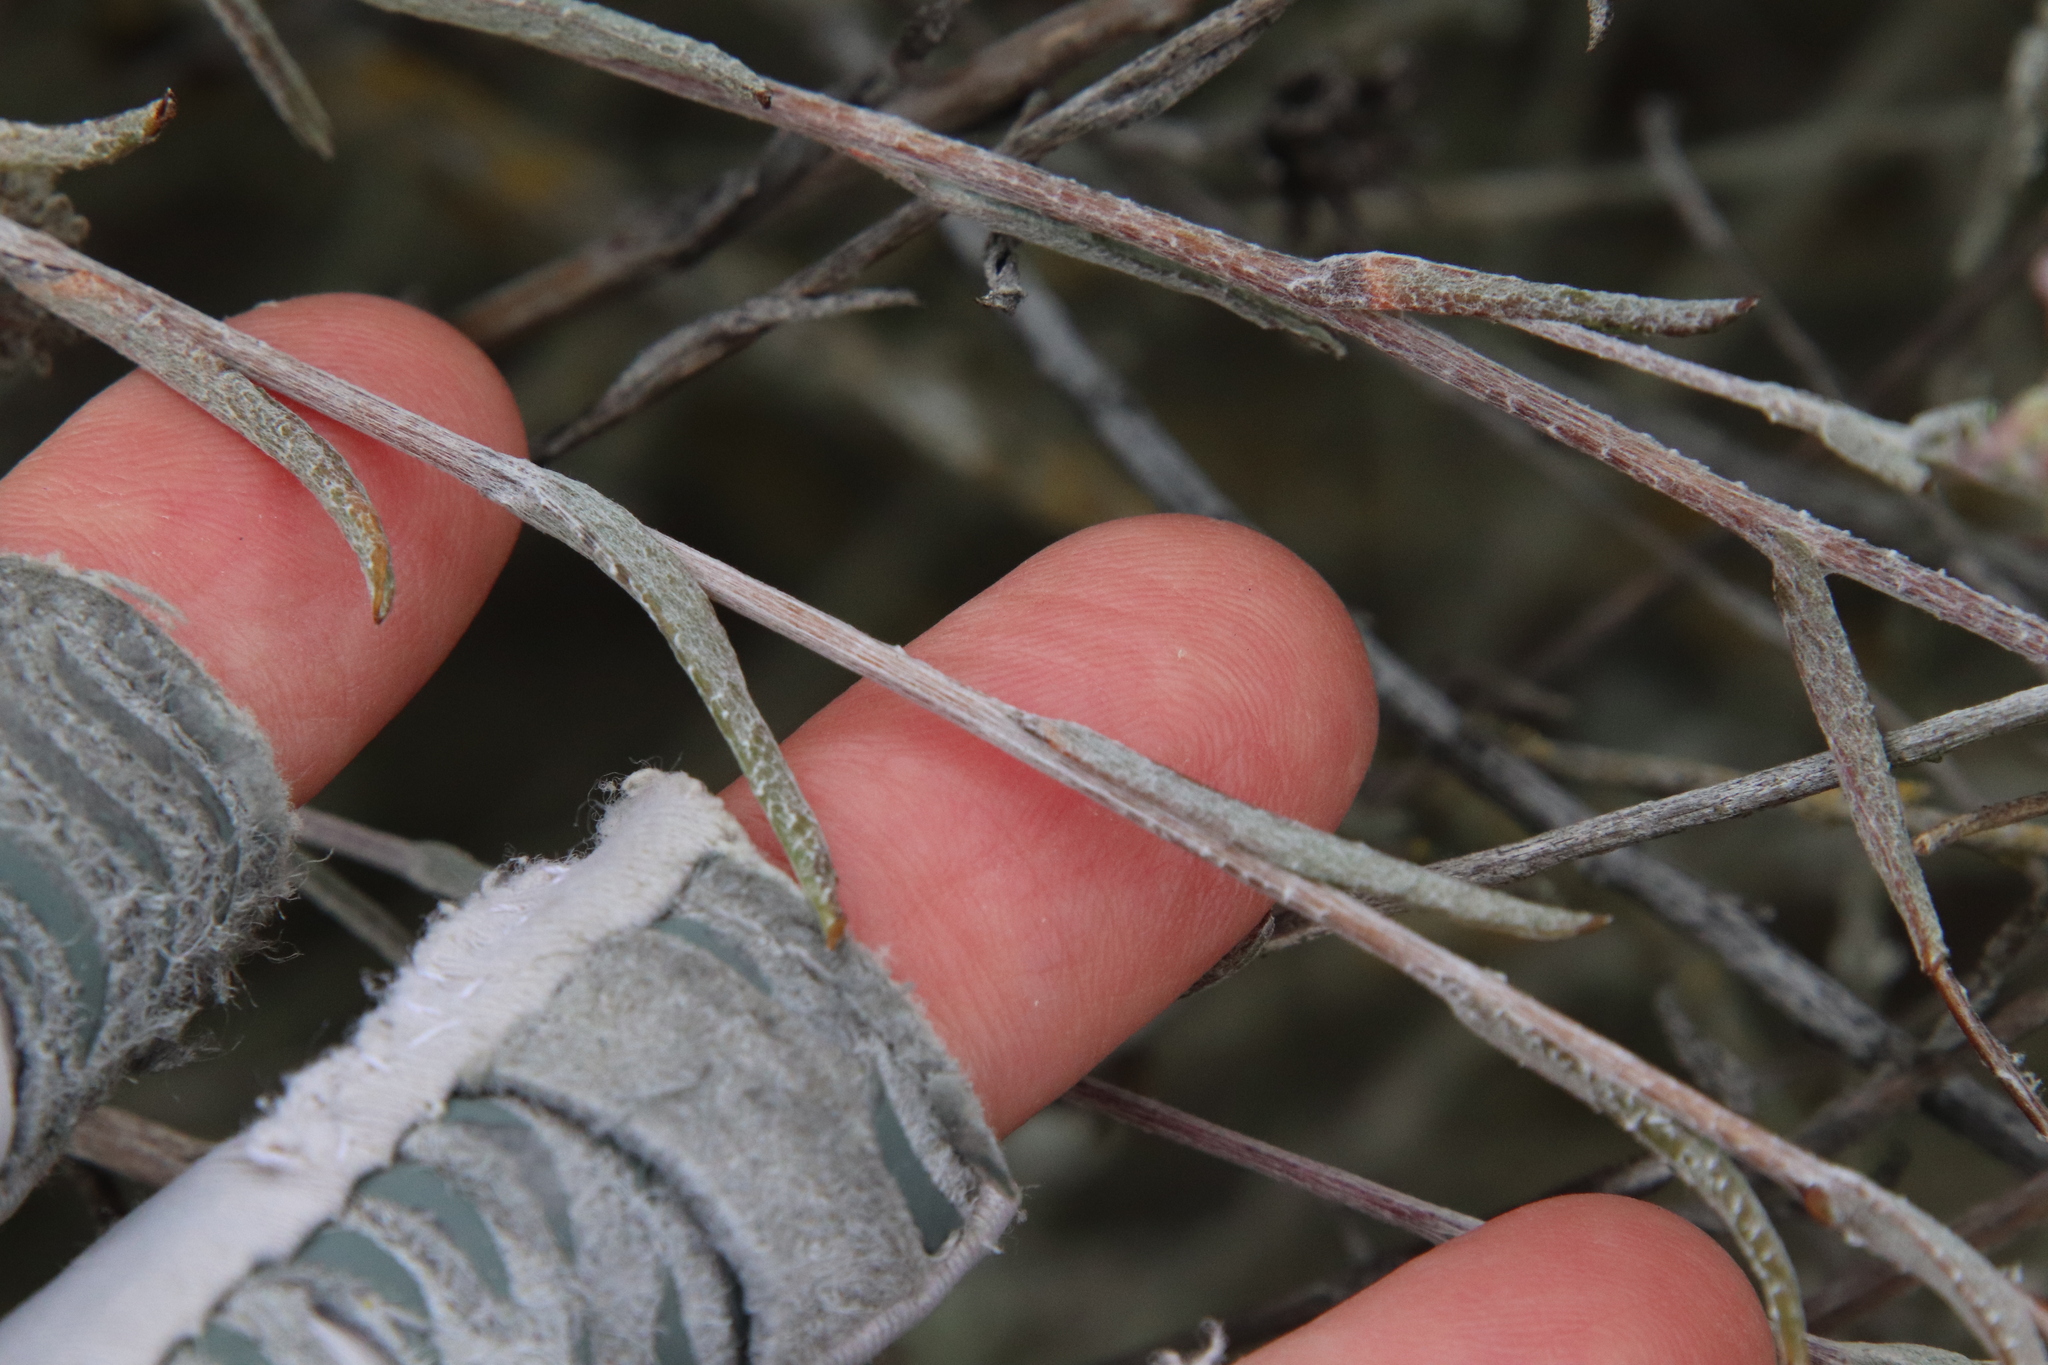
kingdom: Plantae
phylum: Tracheophyta
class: Magnoliopsida
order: Asterales
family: Asteraceae
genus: Corethrogyne
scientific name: Corethrogyne filaginifolia
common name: Sand-aster
